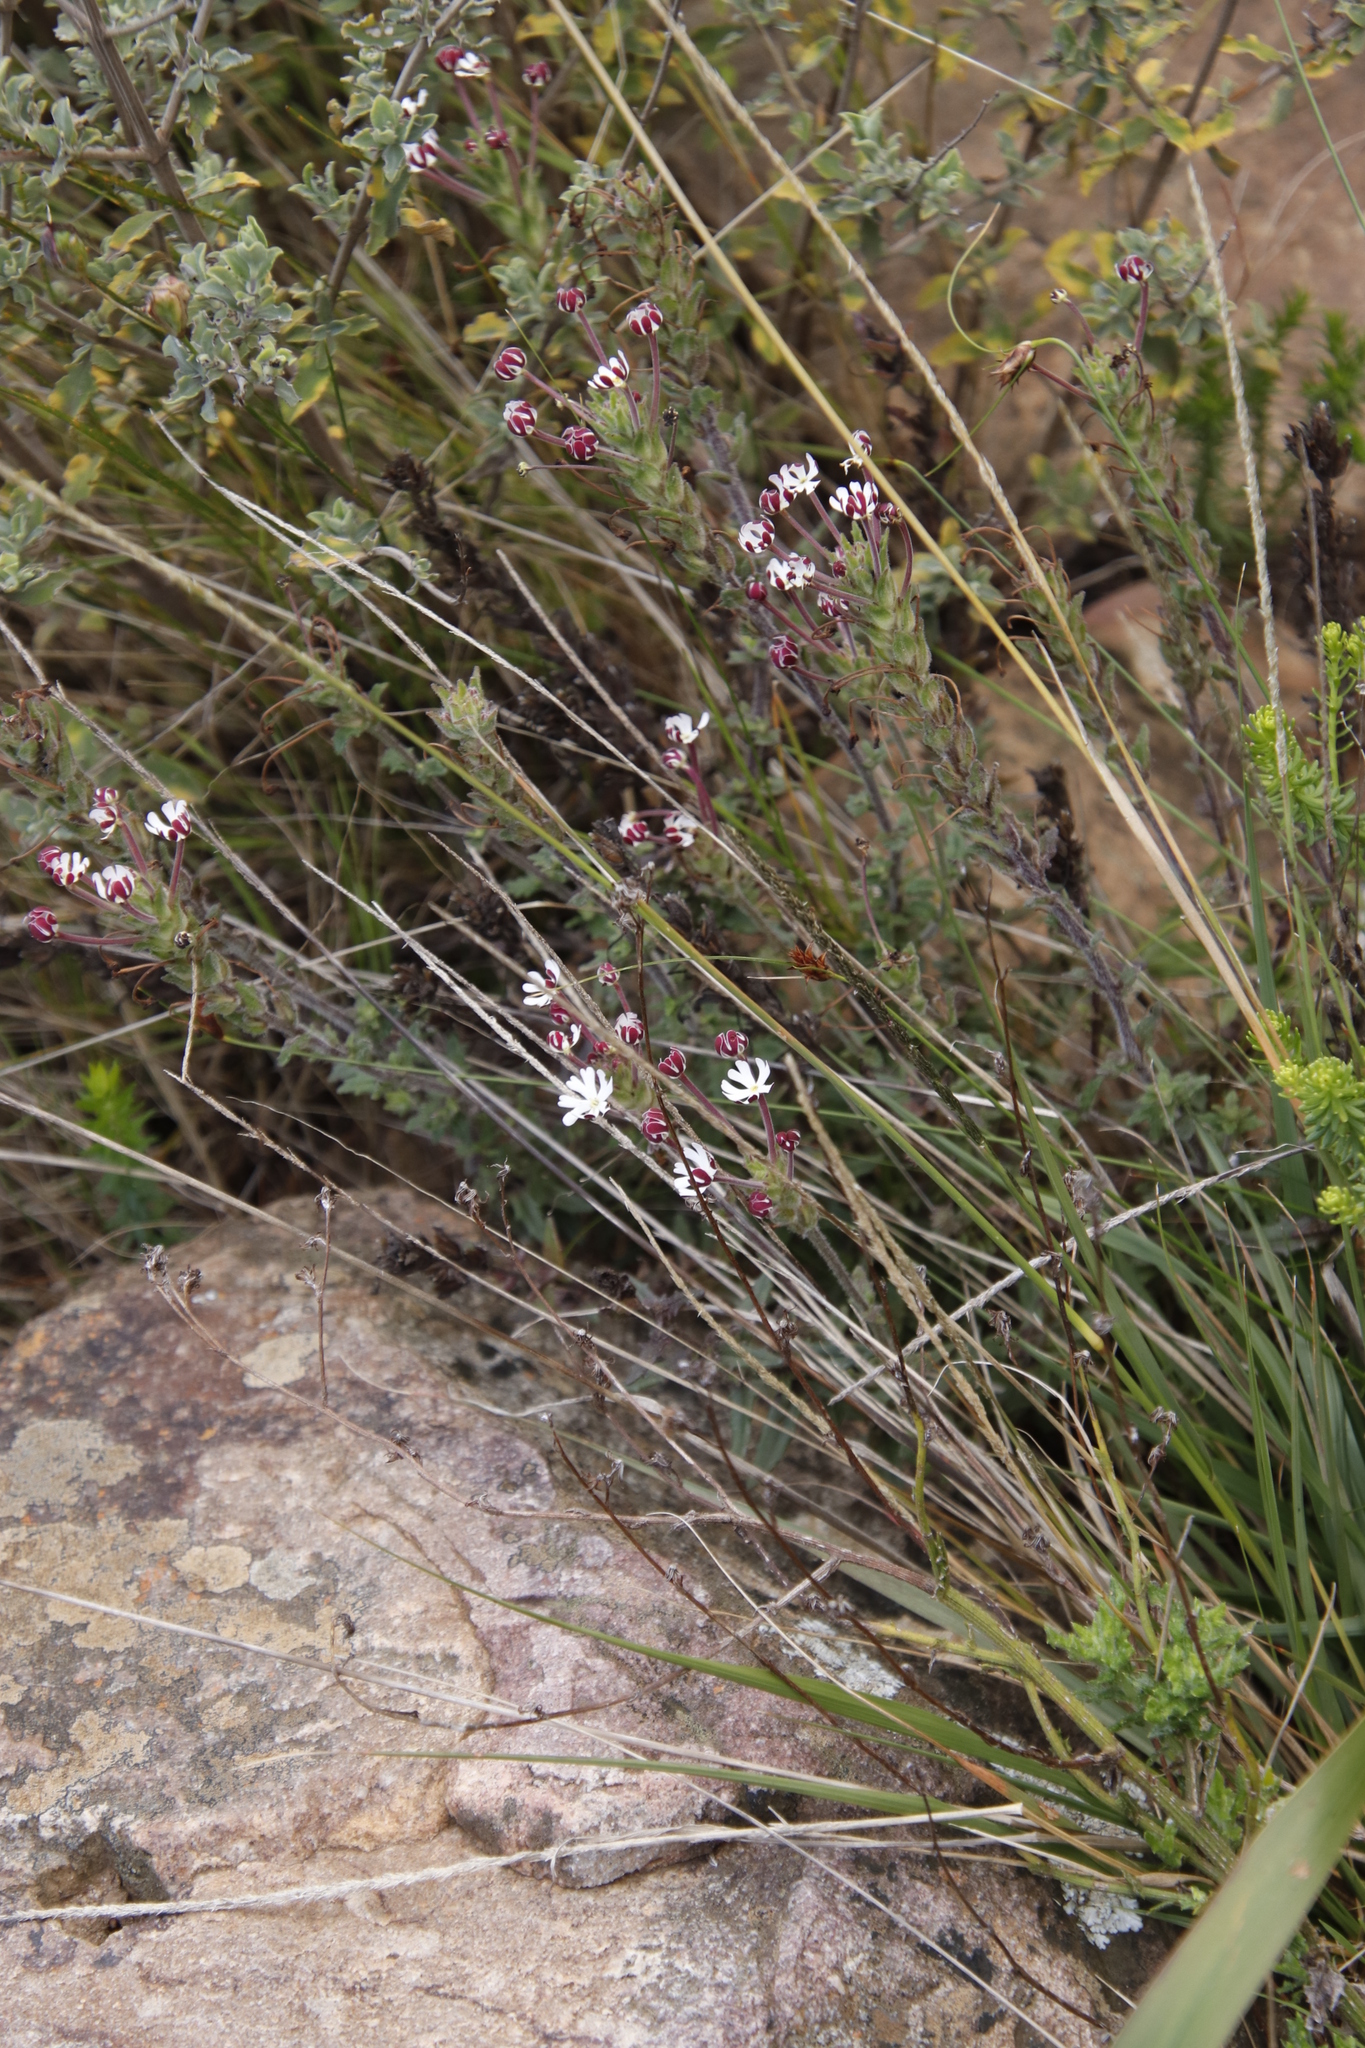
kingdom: Plantae
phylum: Tracheophyta
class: Magnoliopsida
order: Lamiales
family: Scrophulariaceae
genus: Zaluzianskya
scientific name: Zaluzianskya capensis
